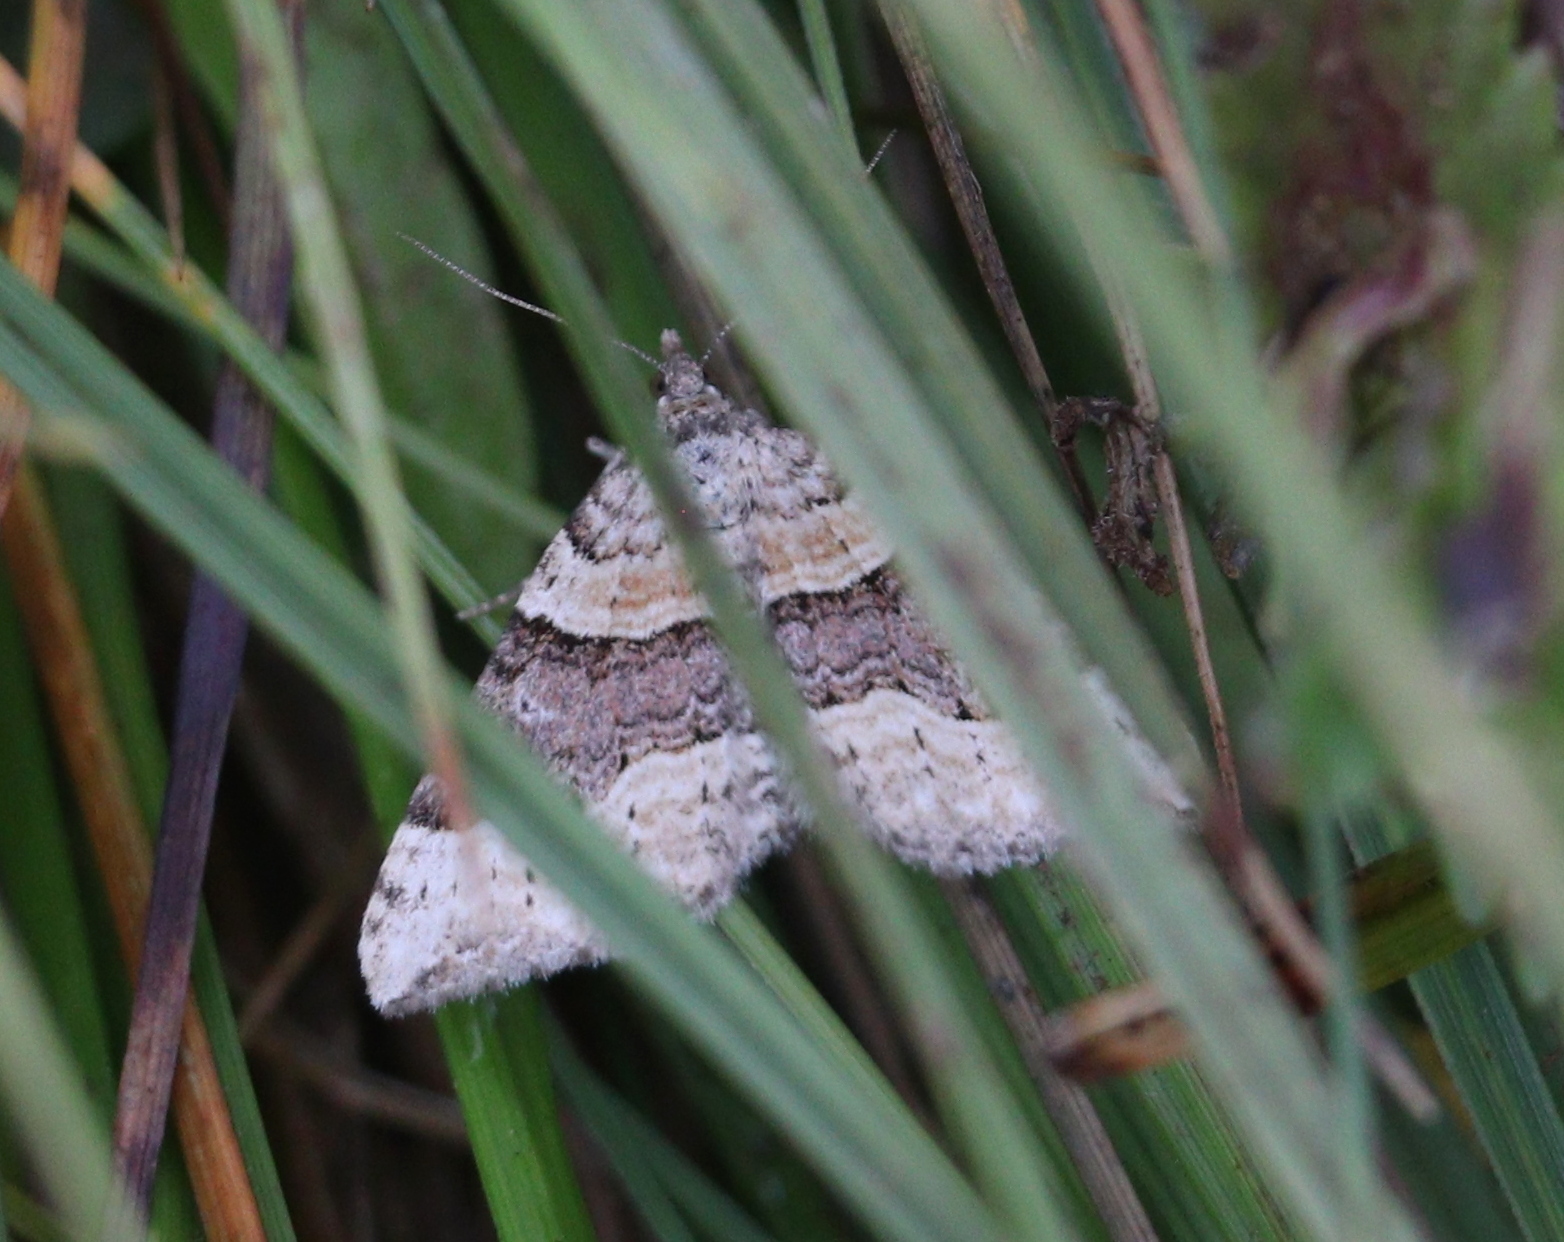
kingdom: Animalia
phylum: Arthropoda
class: Insecta
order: Lepidoptera
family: Geometridae
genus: Xanthorhoe
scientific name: Xanthorhoe decoloraria
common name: Red carpet
